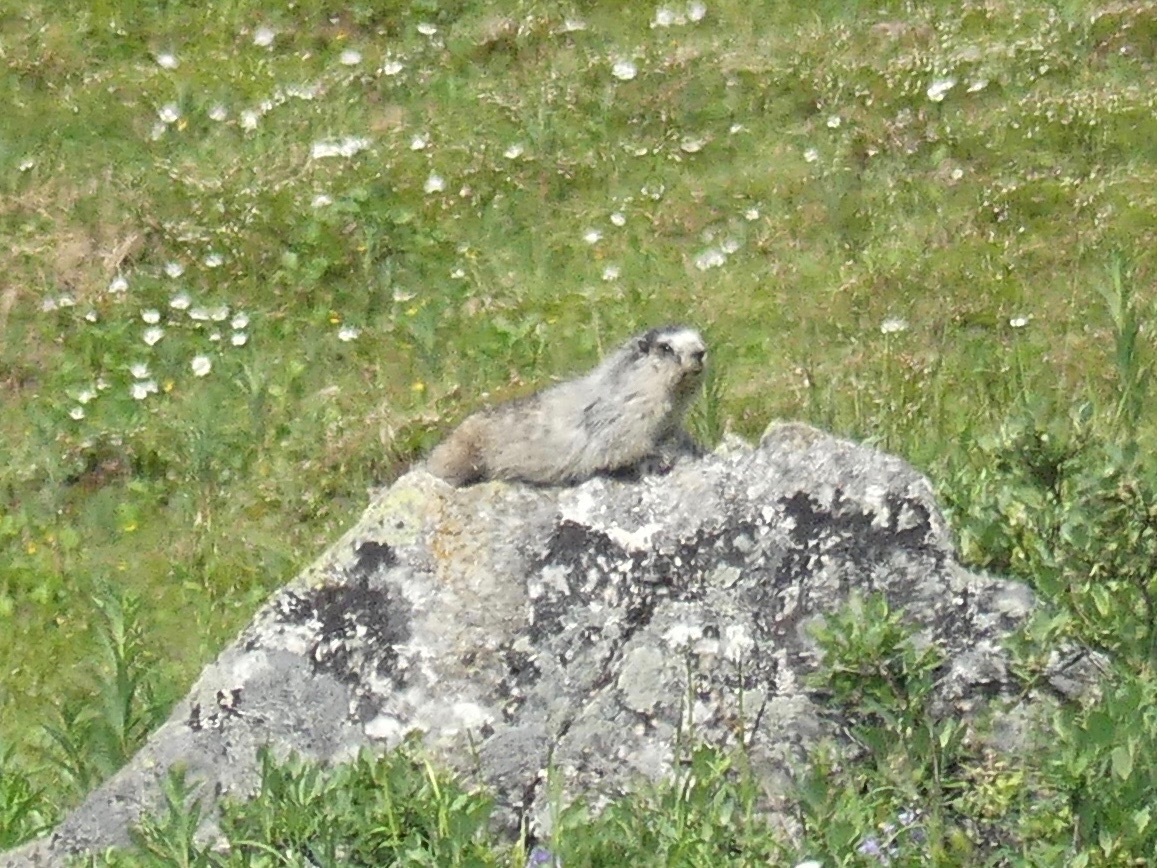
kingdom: Animalia
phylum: Chordata
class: Mammalia
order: Rodentia
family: Sciuridae
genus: Marmota
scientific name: Marmota caligata
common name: Hoary marmot
